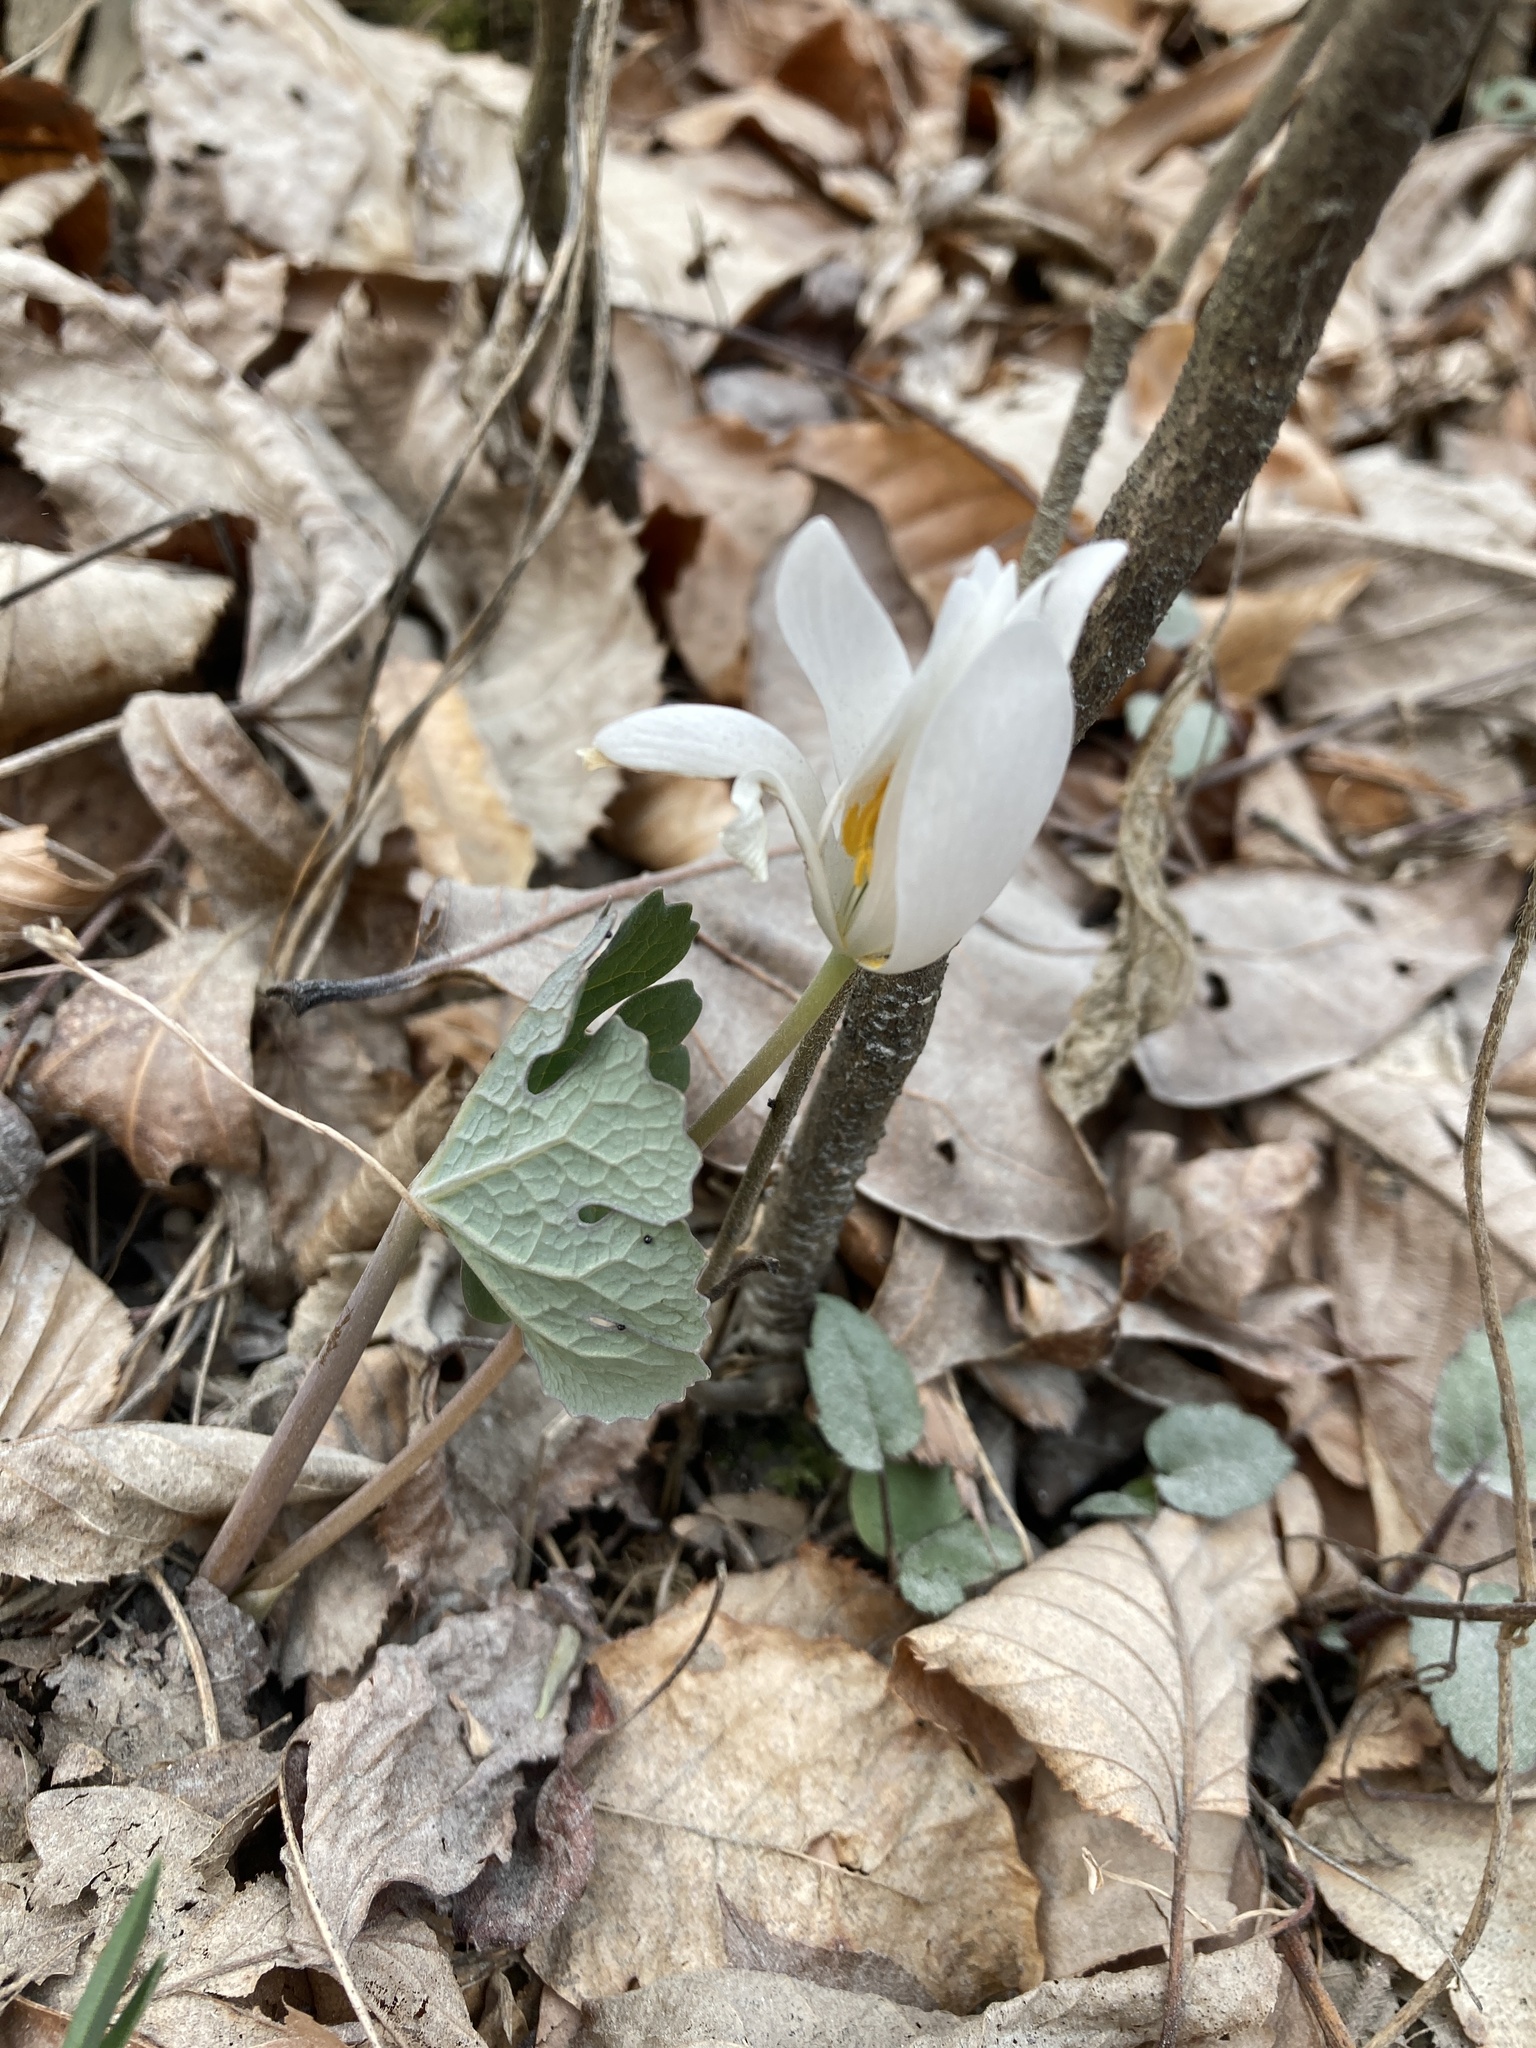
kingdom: Plantae
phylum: Tracheophyta
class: Magnoliopsida
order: Ranunculales
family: Papaveraceae
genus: Sanguinaria
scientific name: Sanguinaria canadensis
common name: Bloodroot
